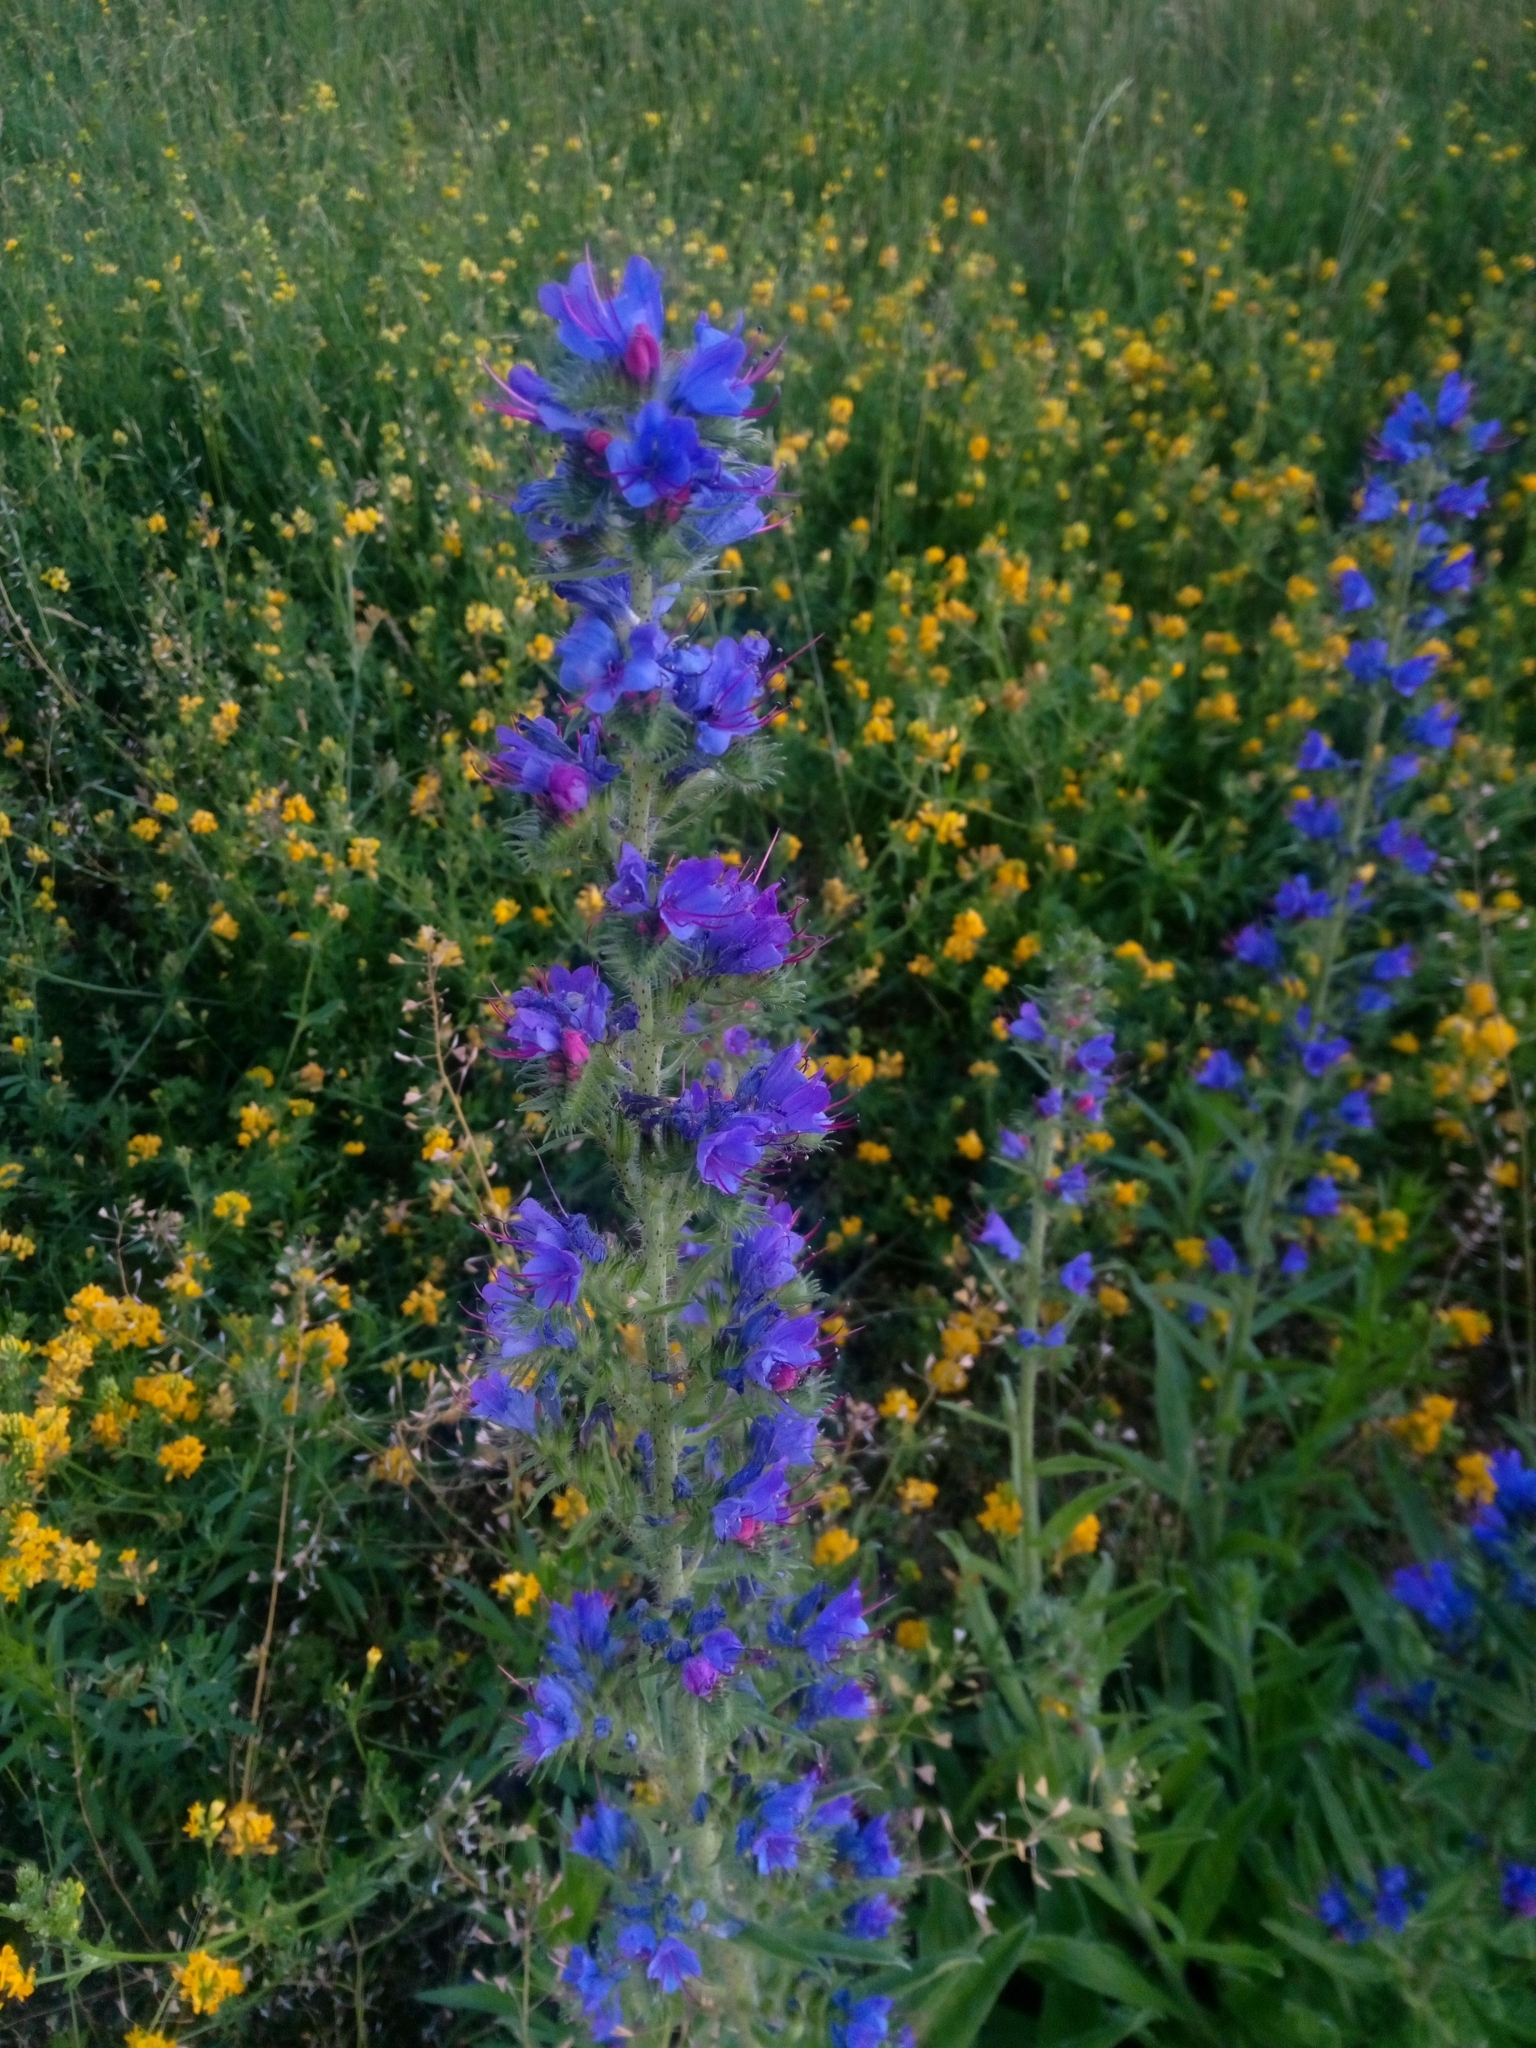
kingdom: Plantae
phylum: Tracheophyta
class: Magnoliopsida
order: Boraginales
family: Boraginaceae
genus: Echium
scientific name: Echium vulgare
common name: Common viper's bugloss
